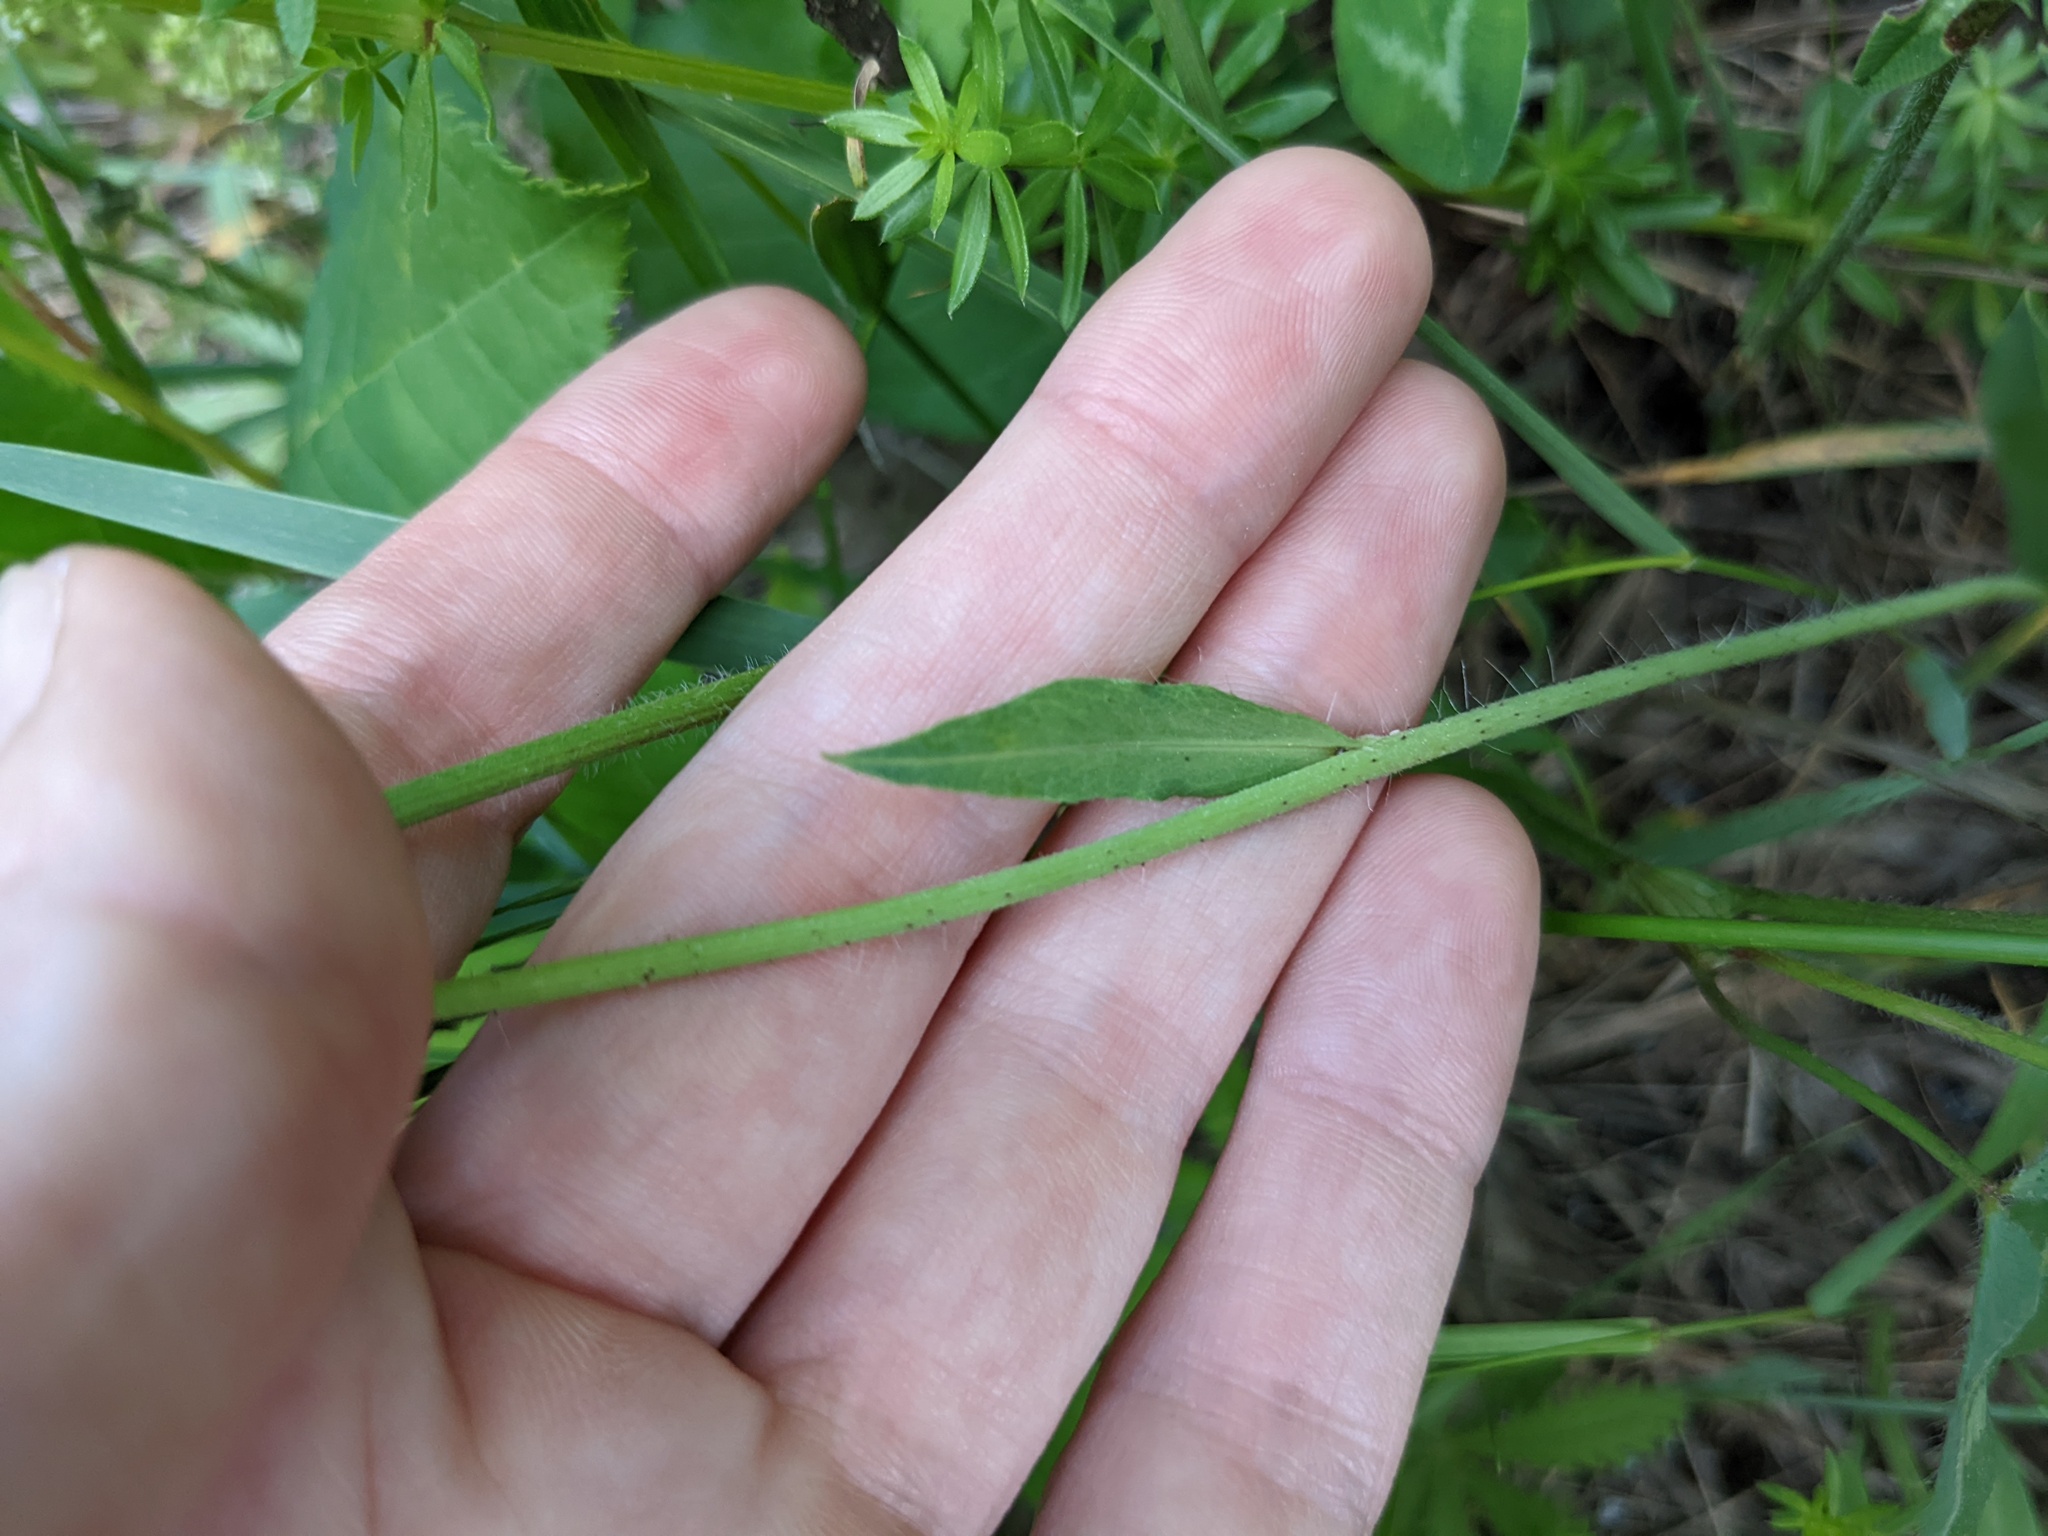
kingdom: Plantae
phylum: Tracheophyta
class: Magnoliopsida
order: Asterales
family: Asteraceae
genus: Pilosella
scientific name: Pilosella caespitosa
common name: Yellow fox-and-cubs
